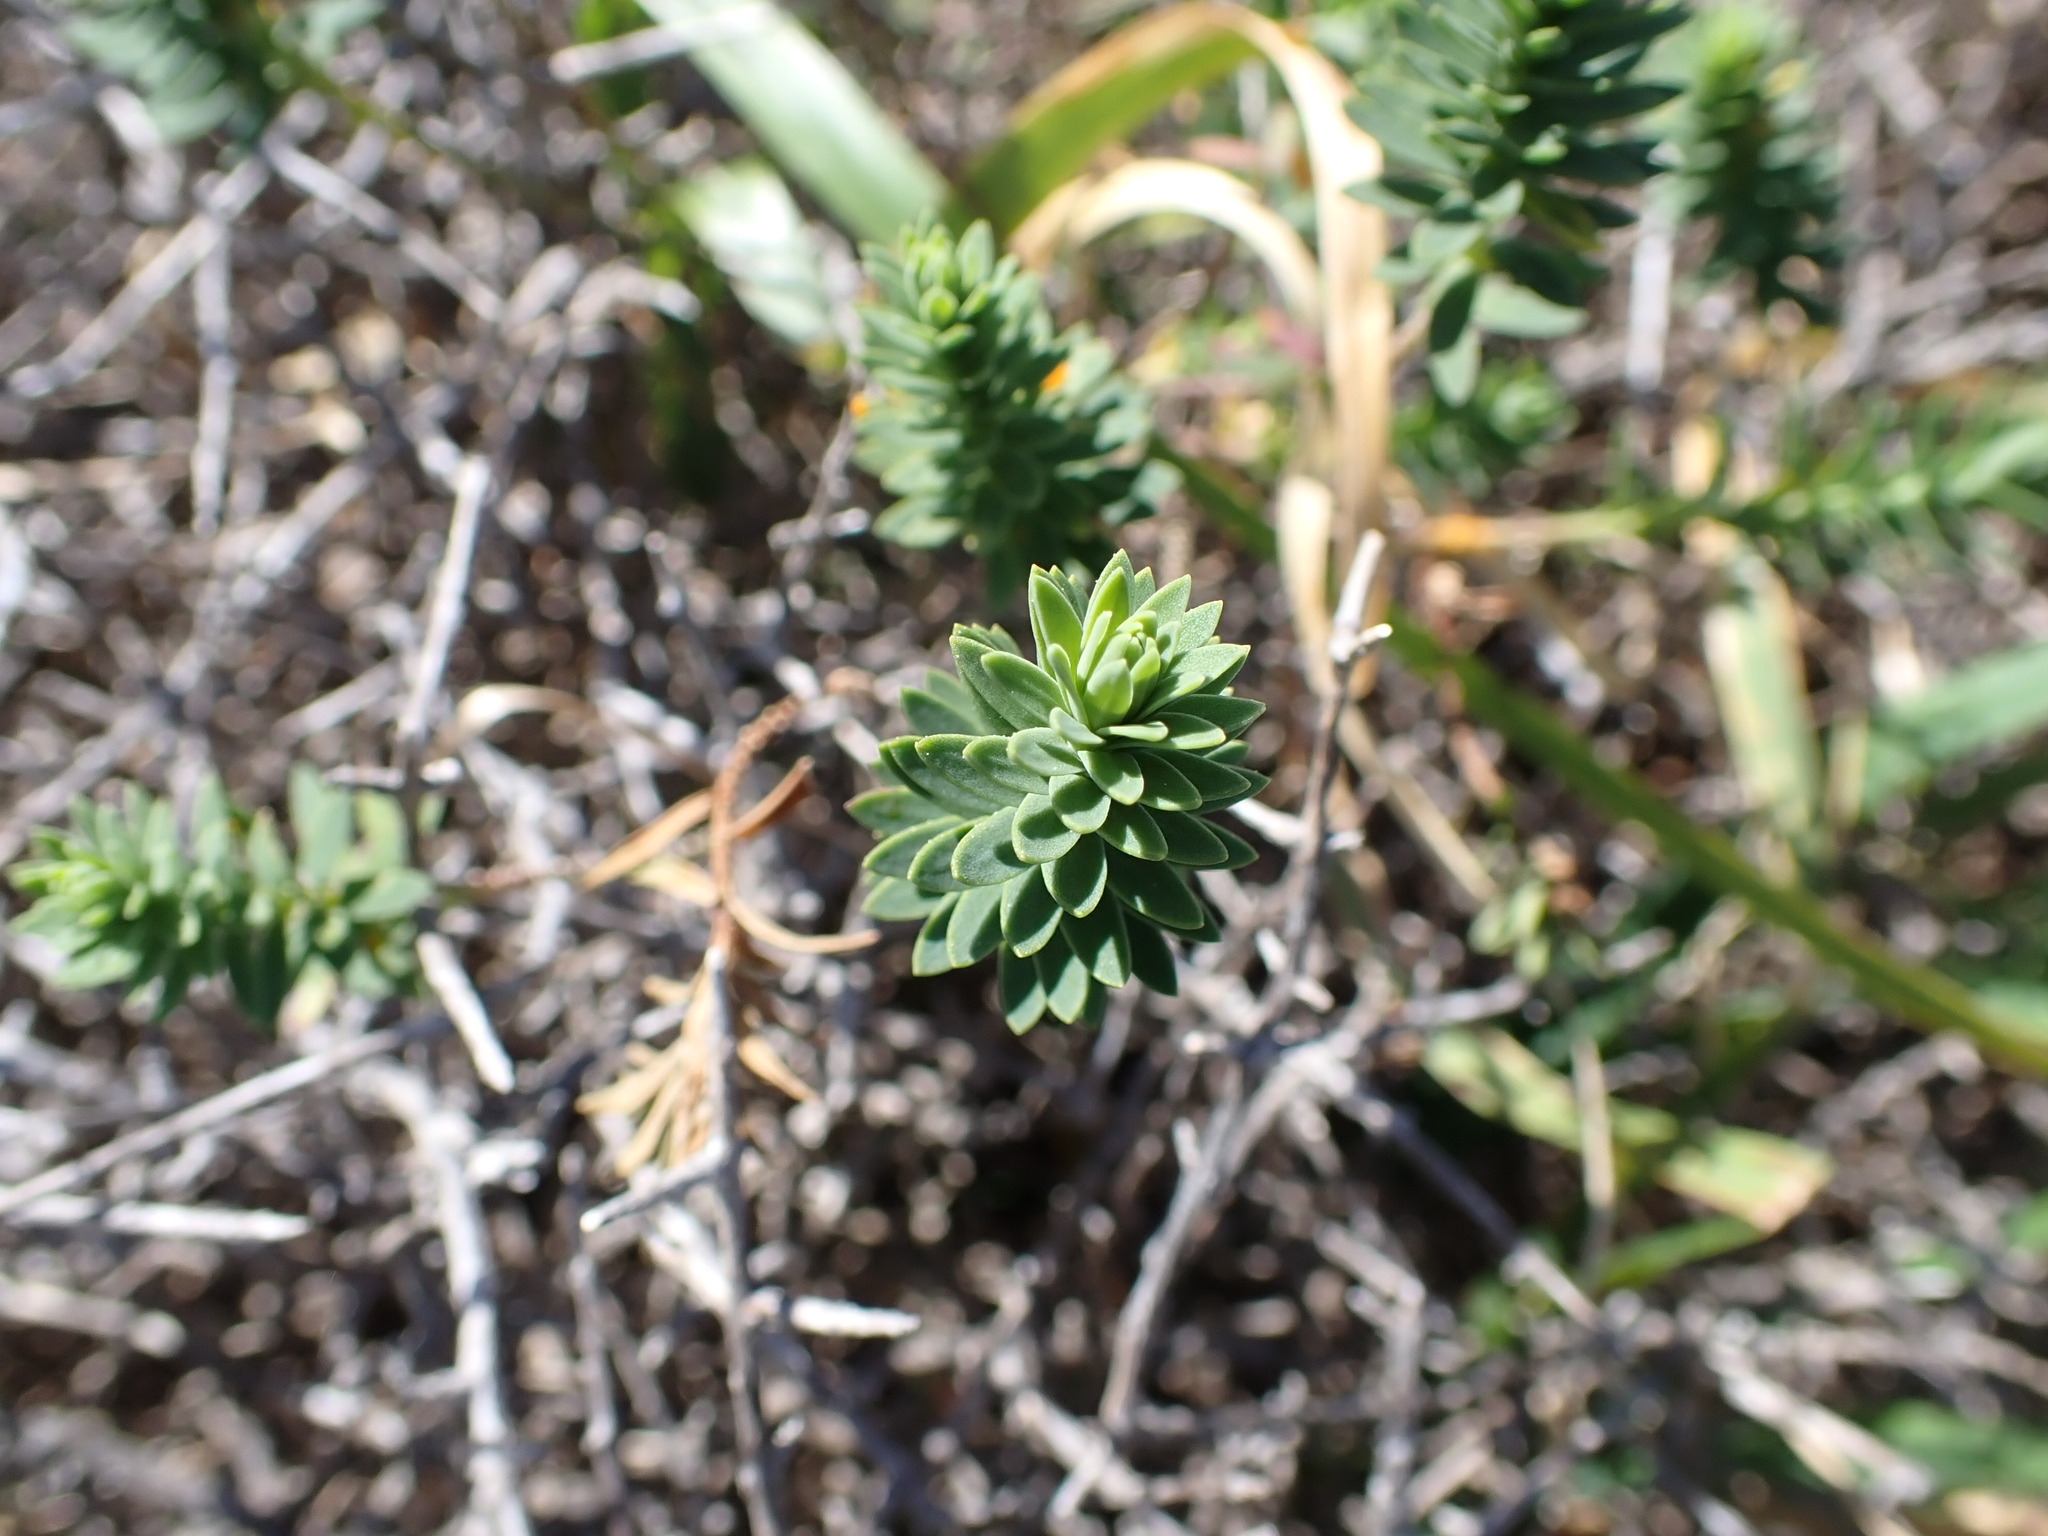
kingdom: Plantae
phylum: Tracheophyta
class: Magnoliopsida
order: Malpighiales
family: Linaceae
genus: Linum
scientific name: Linum monogynum
